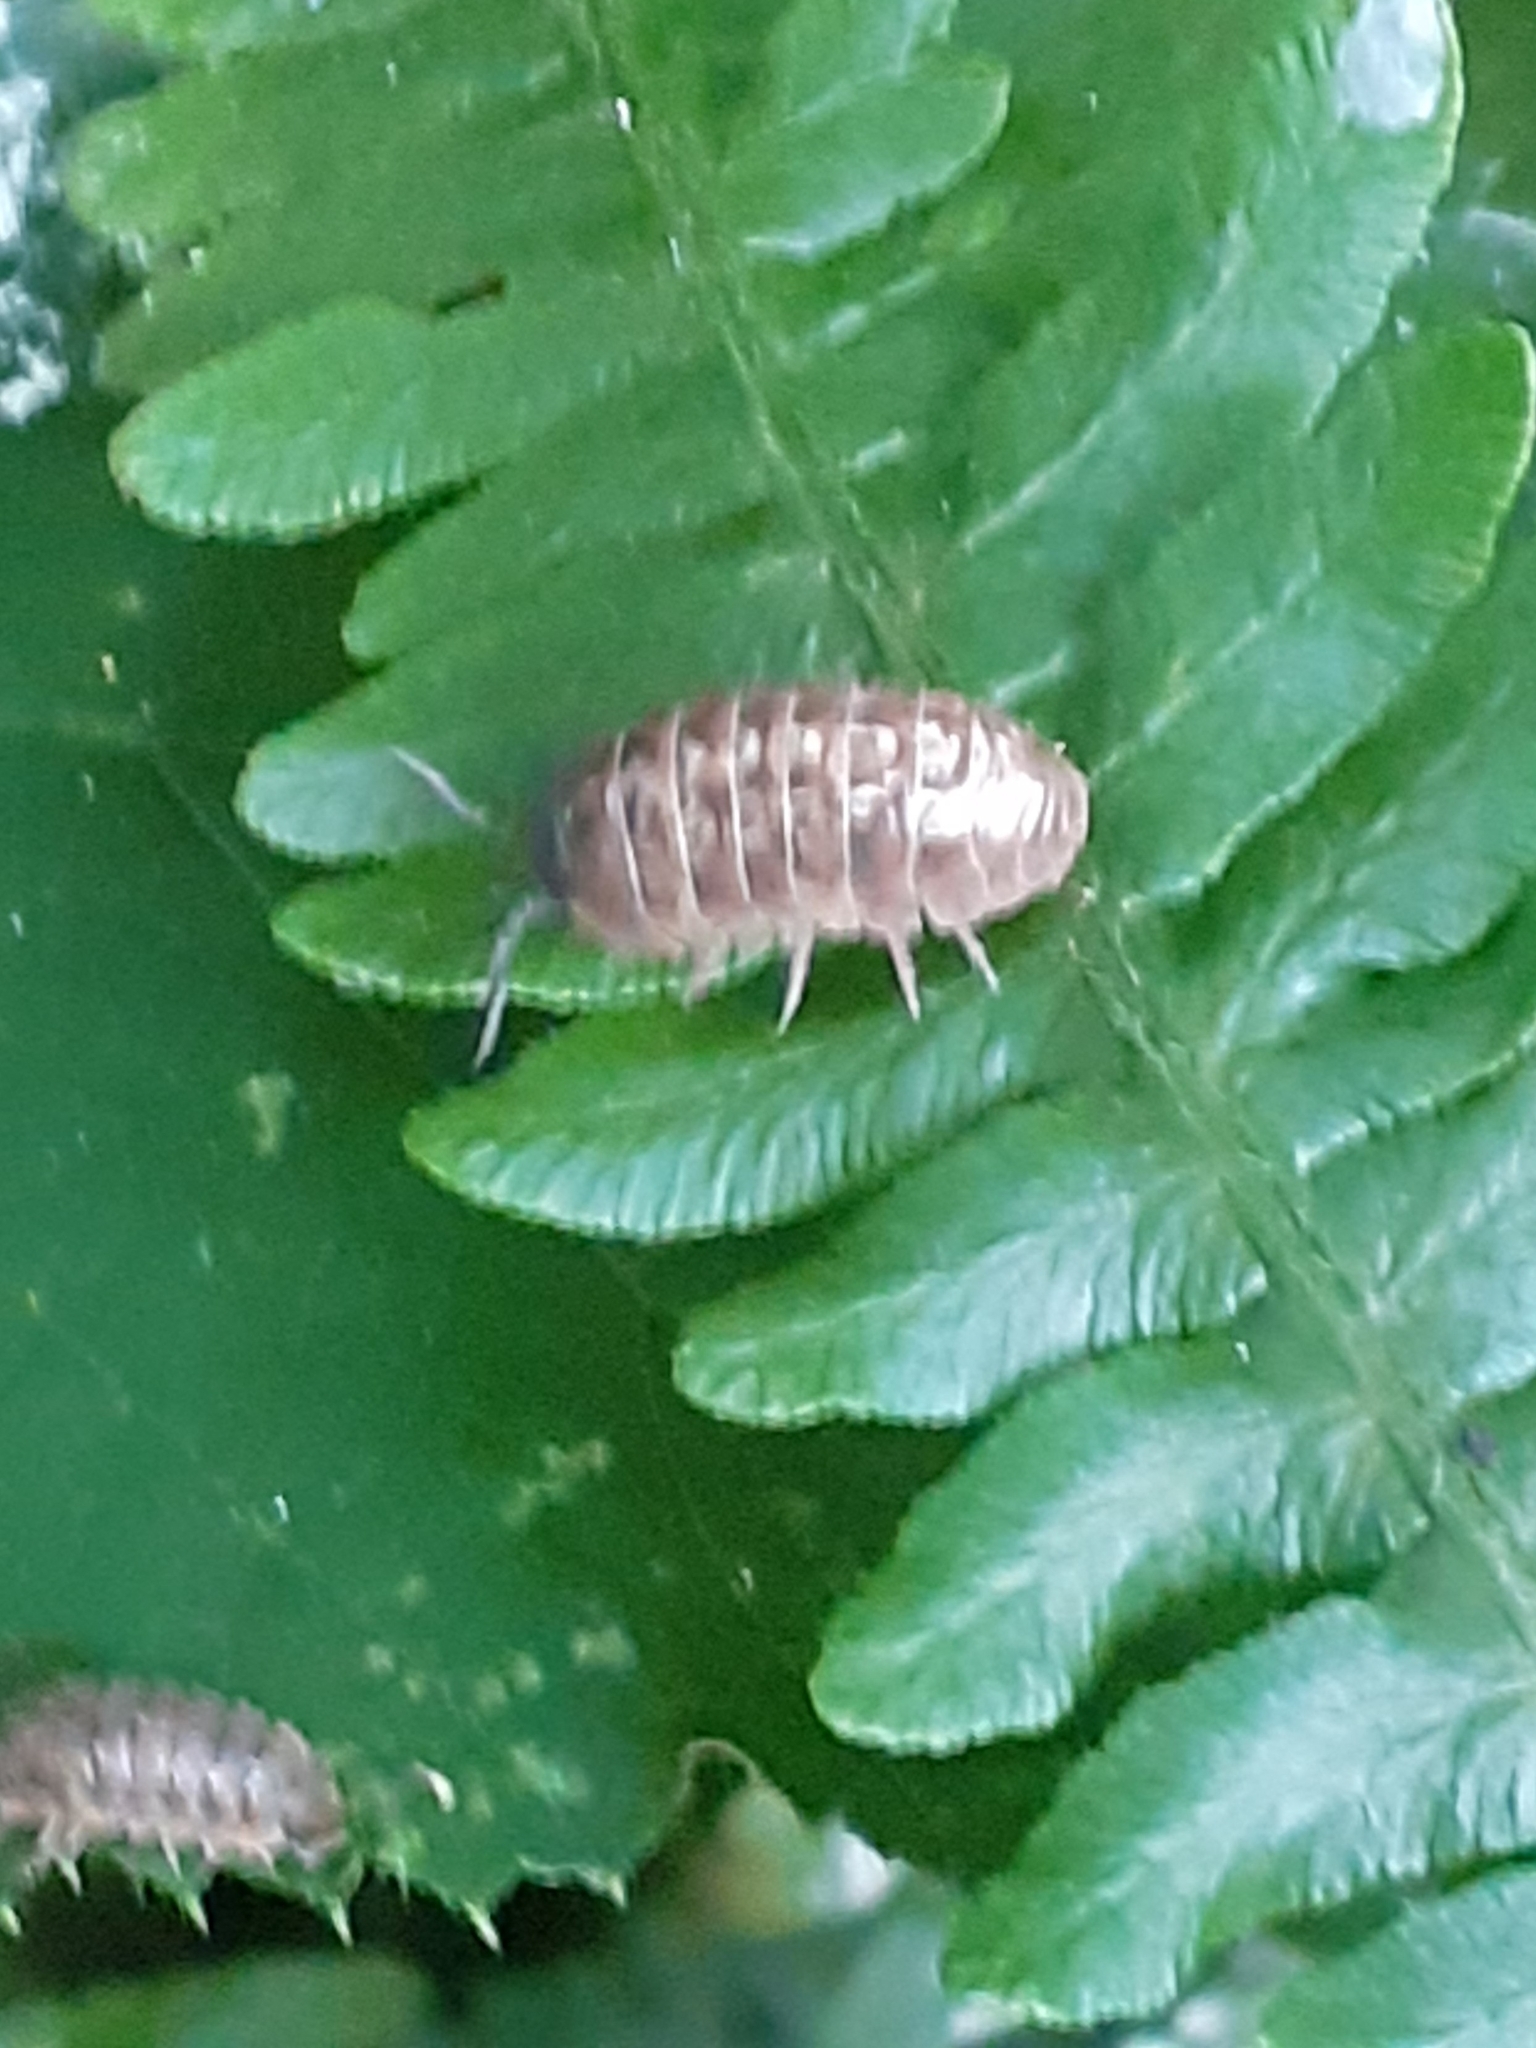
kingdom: Animalia
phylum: Arthropoda
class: Malacostraca
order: Isopoda
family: Armadillidiidae
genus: Armadillidium
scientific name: Armadillidium vulgare
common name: Common pill woodlouse
